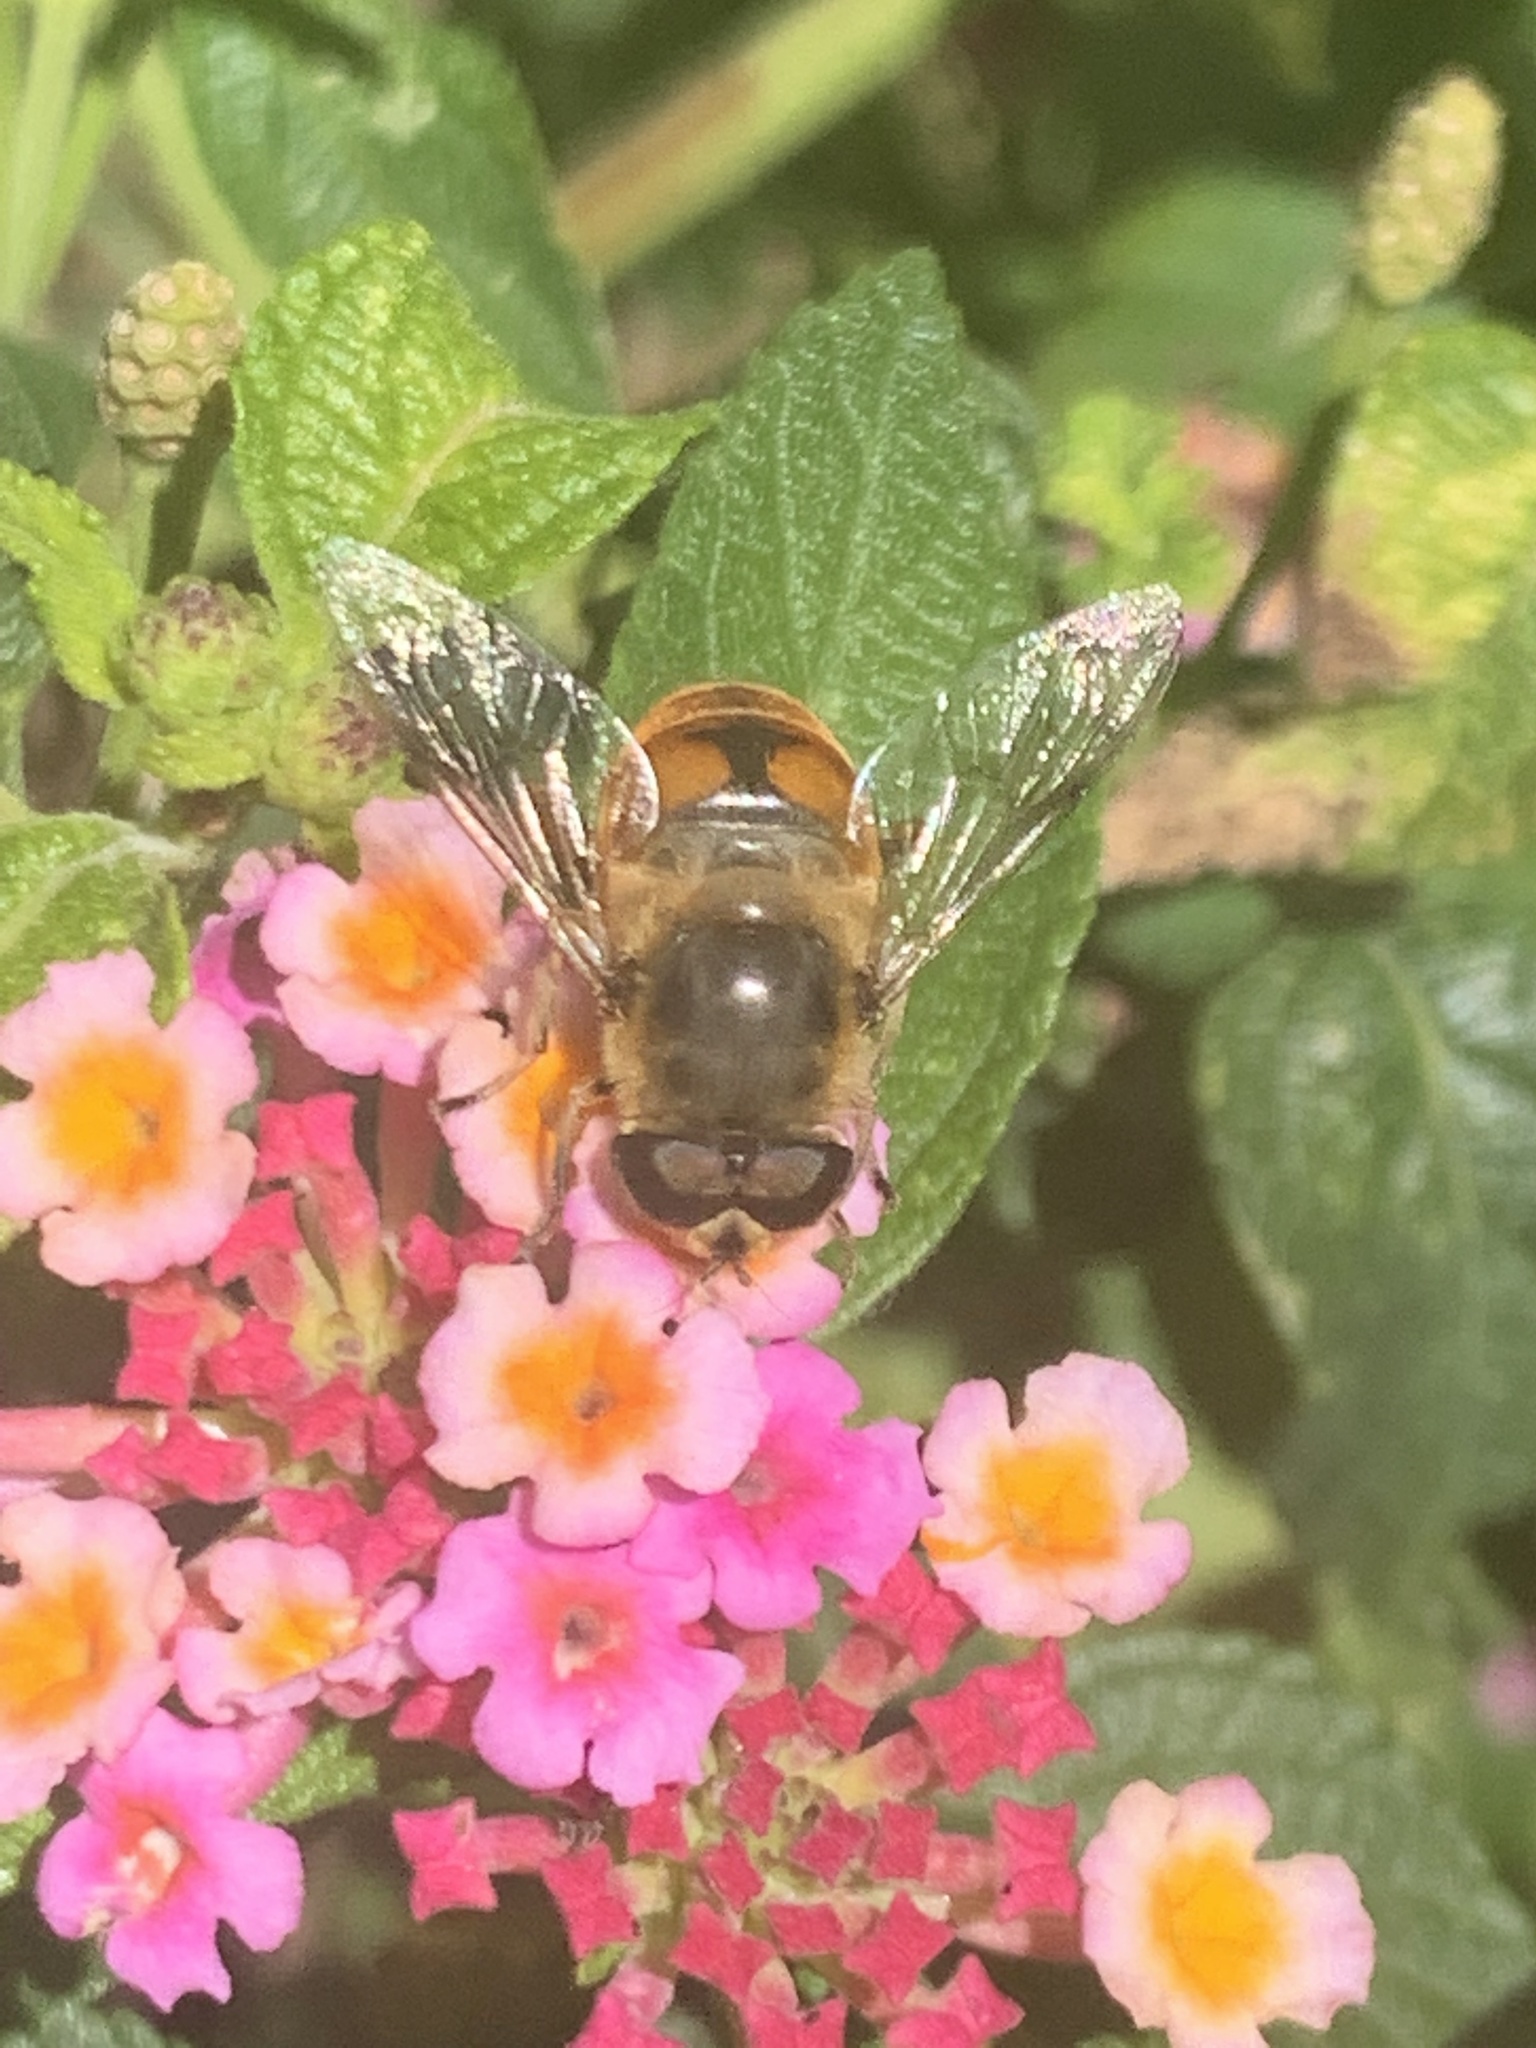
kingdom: Animalia
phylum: Arthropoda
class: Insecta
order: Diptera
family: Syrphidae
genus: Eristalis
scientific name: Eristalis tenax
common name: Drone fly
